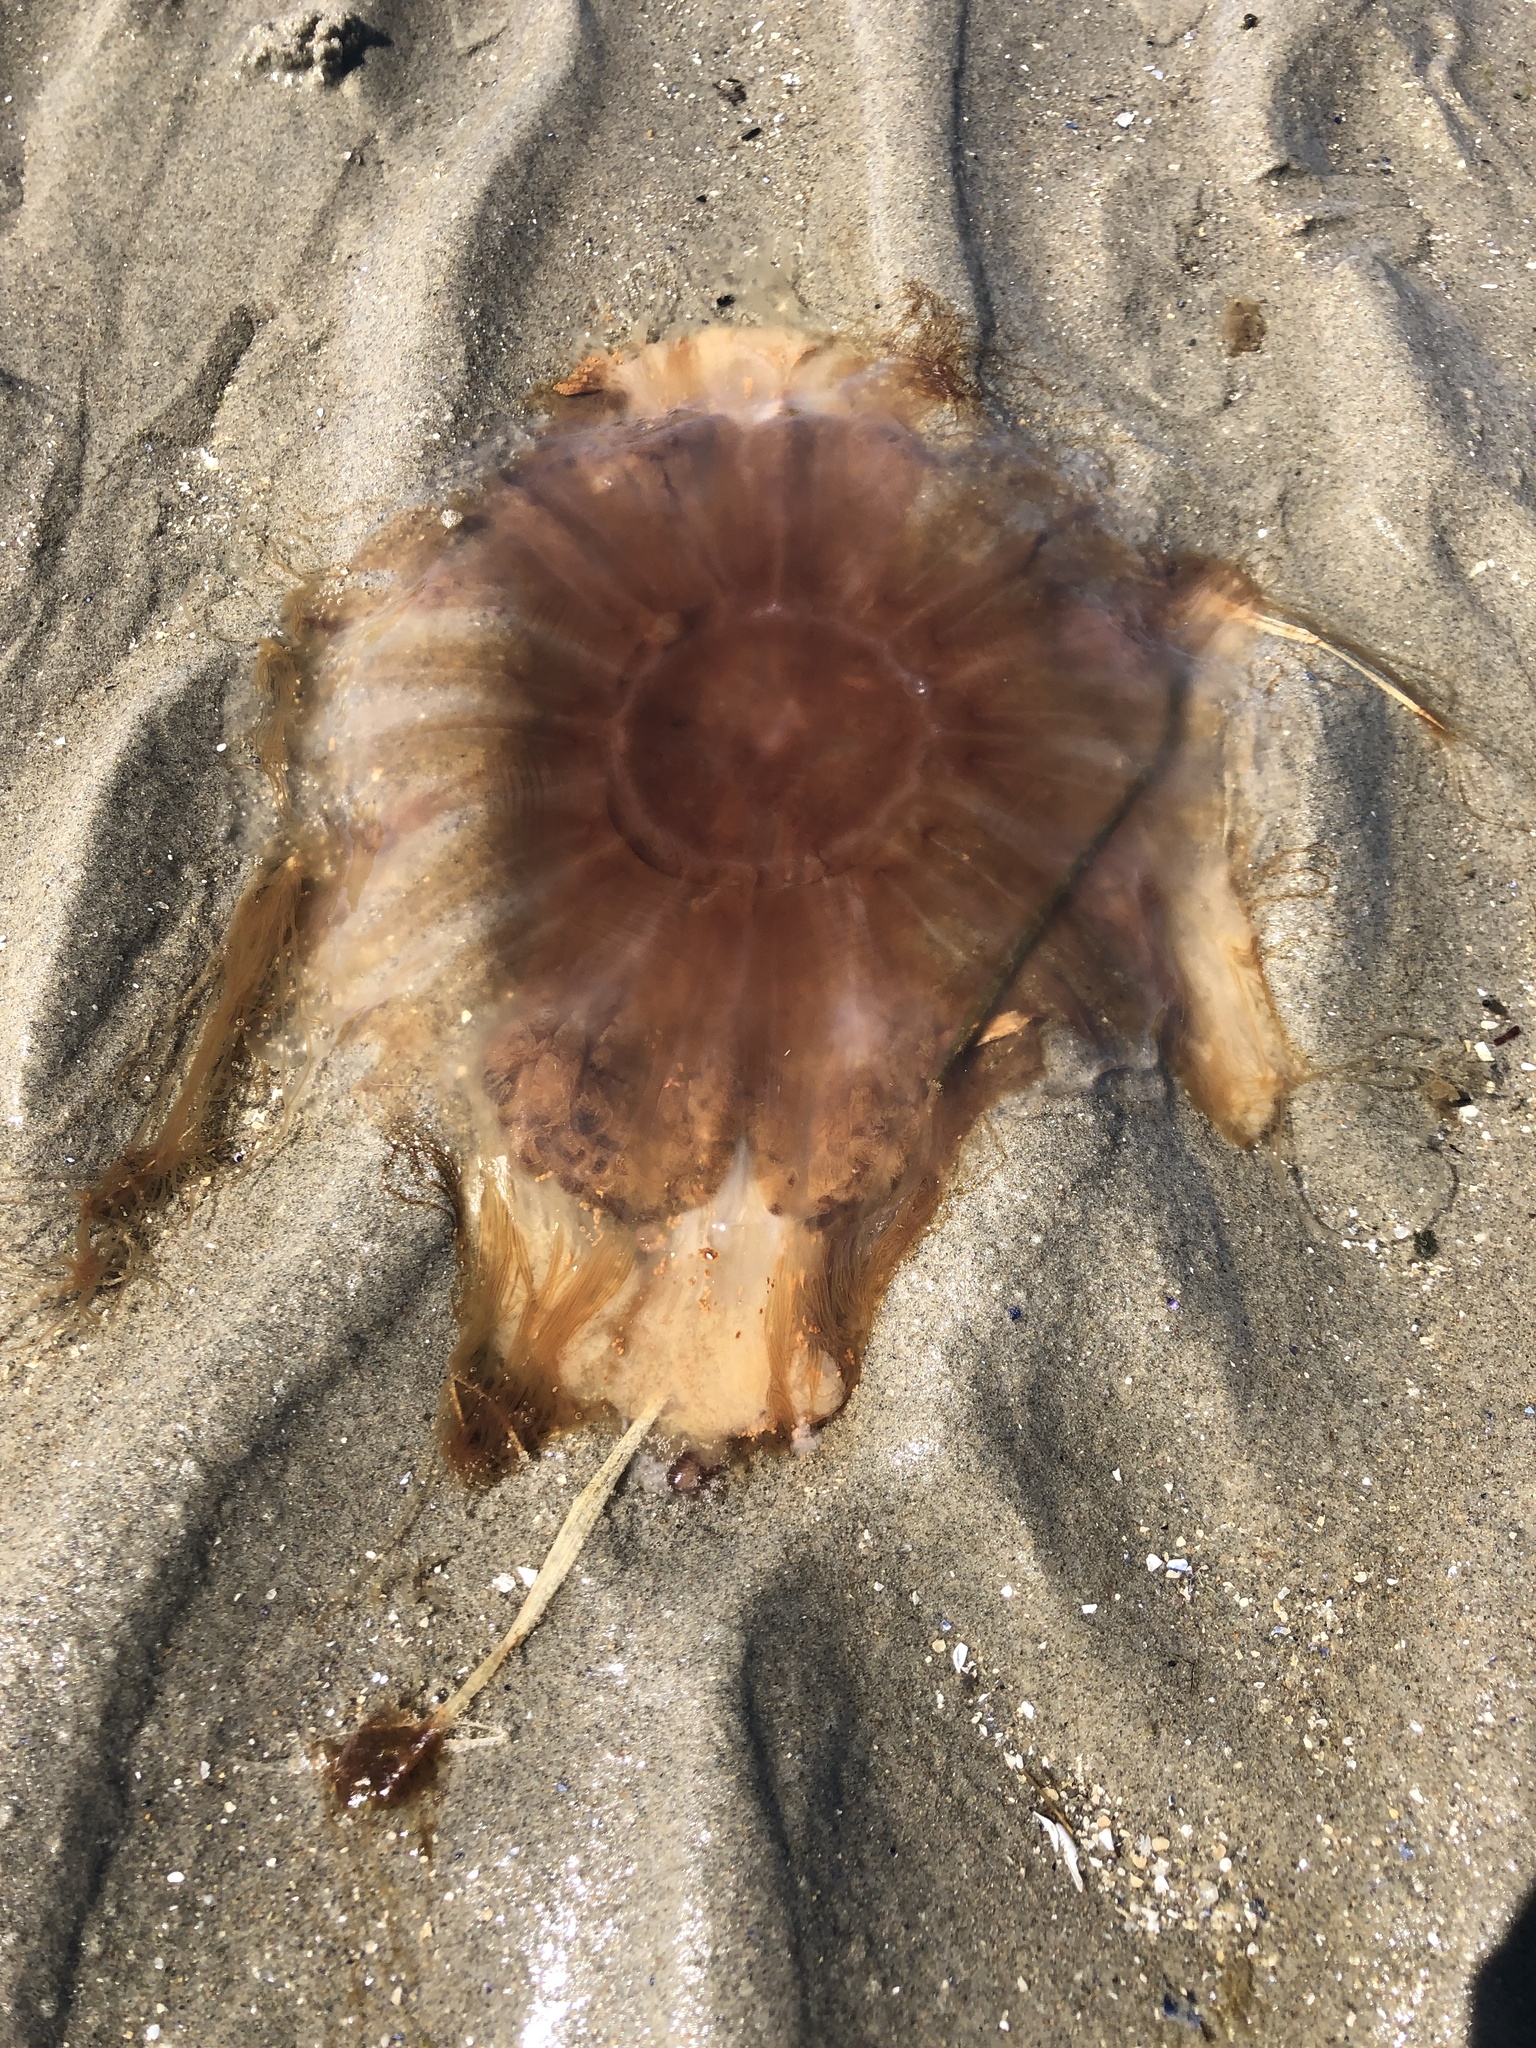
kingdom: Animalia
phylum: Cnidaria
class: Scyphozoa
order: Semaeostomeae
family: Cyaneidae
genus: Cyanea
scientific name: Cyanea fulva
